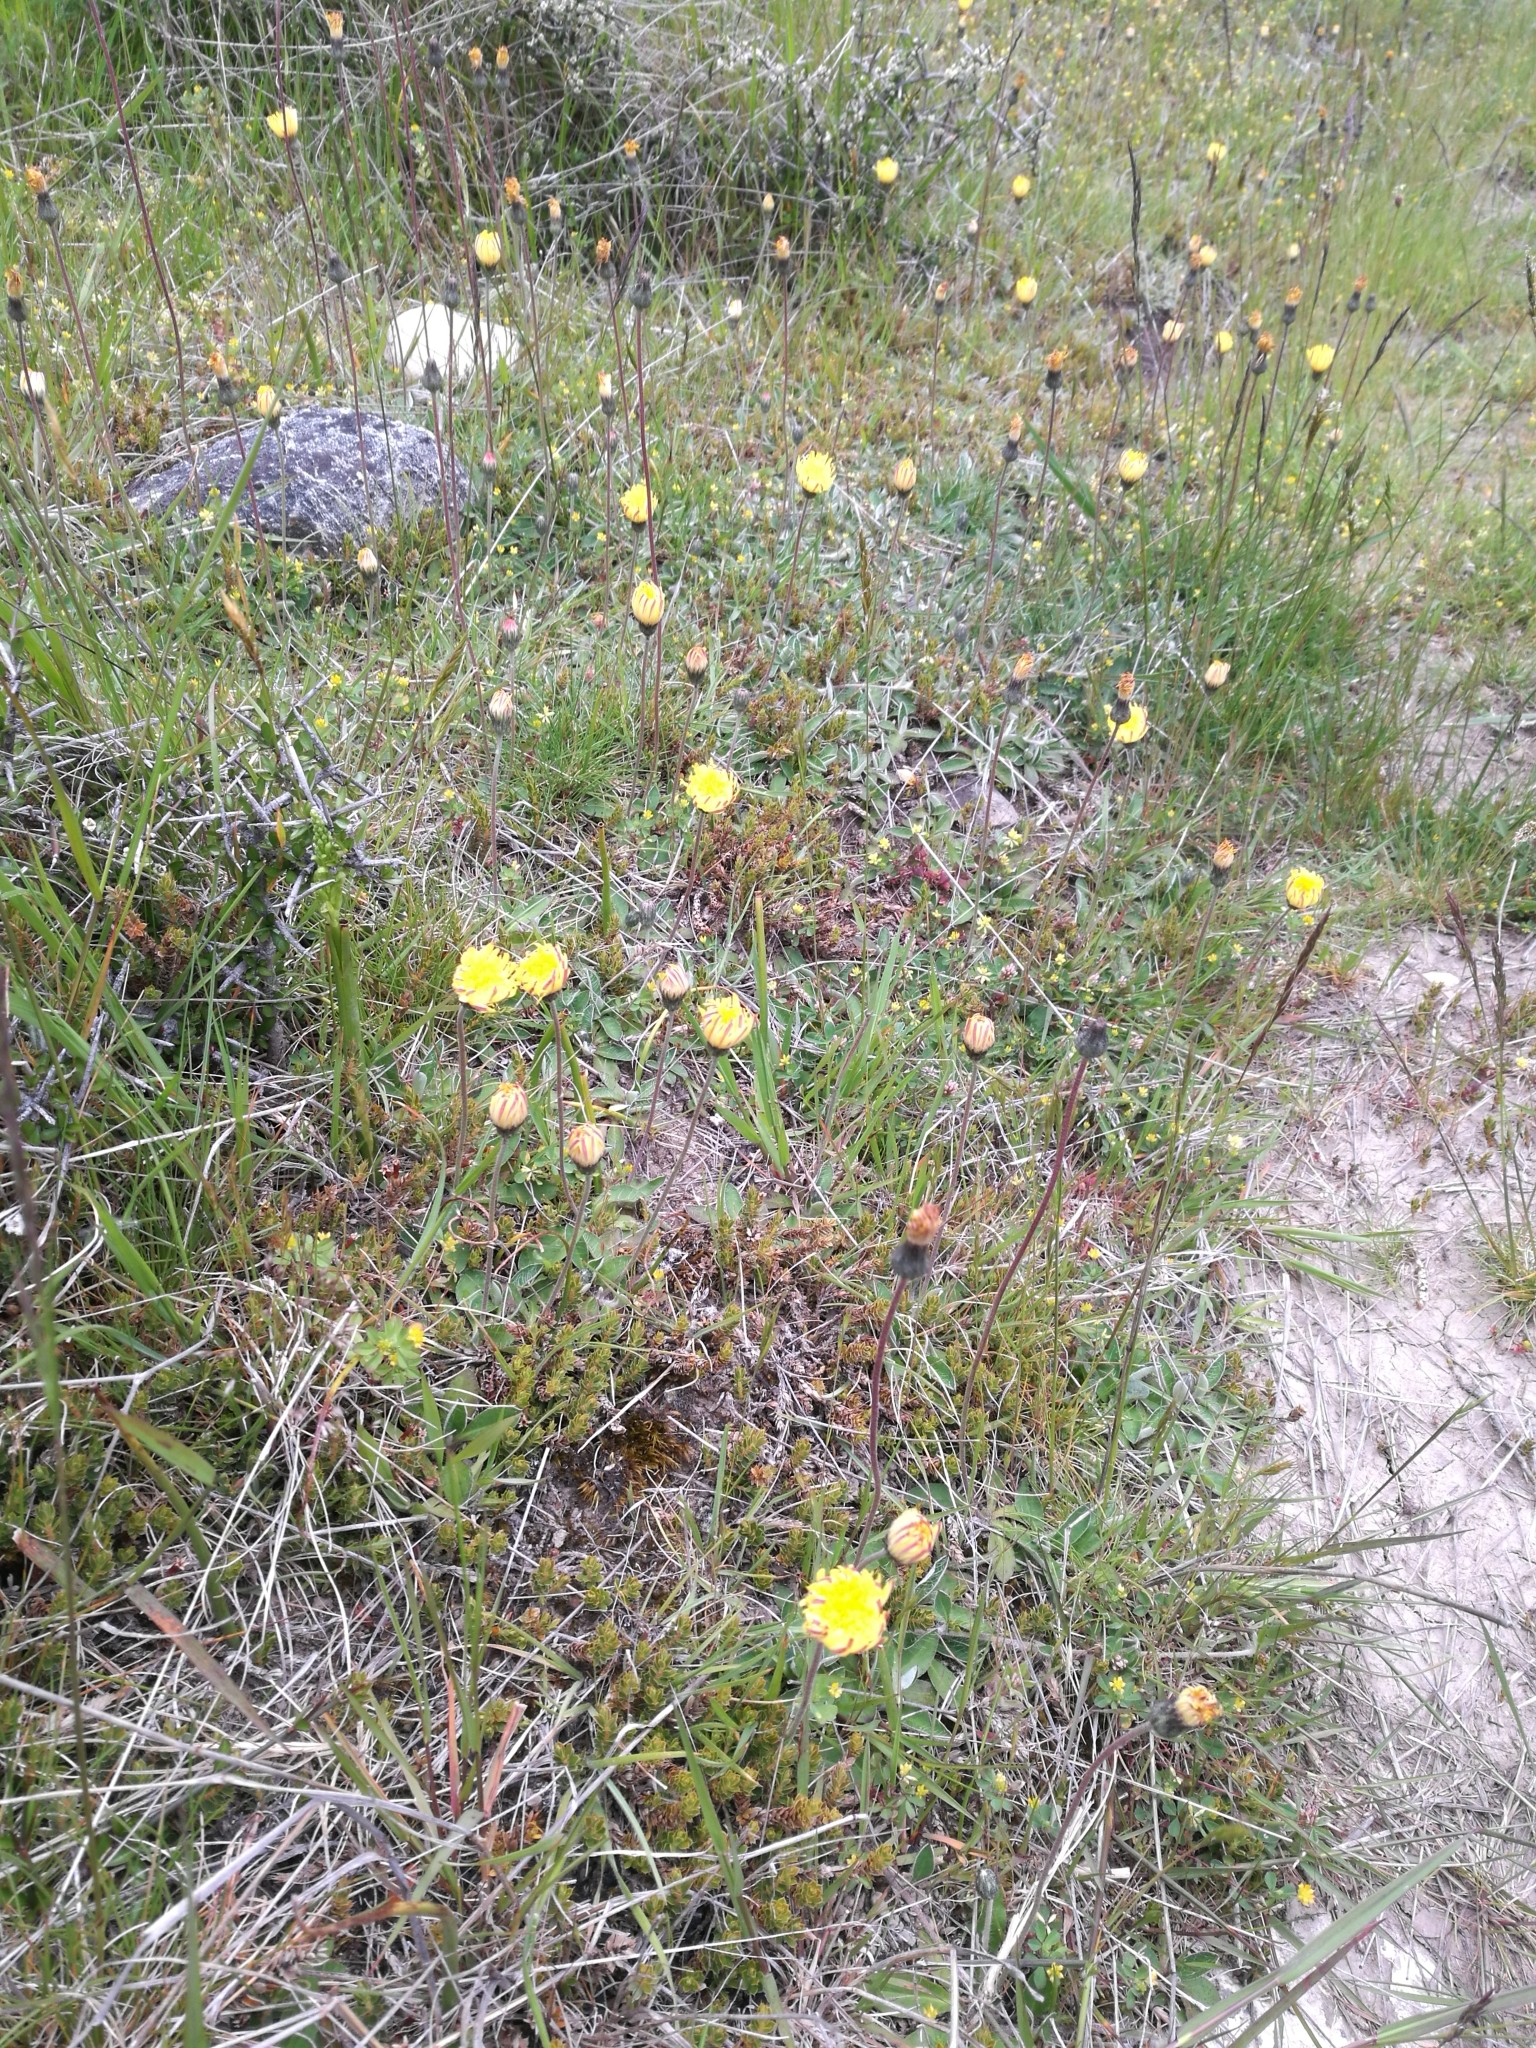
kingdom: Plantae
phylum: Tracheophyta
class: Magnoliopsida
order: Asterales
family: Asteraceae
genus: Pilosella
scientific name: Pilosella officinarum
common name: Mouse-ear hawkweed
